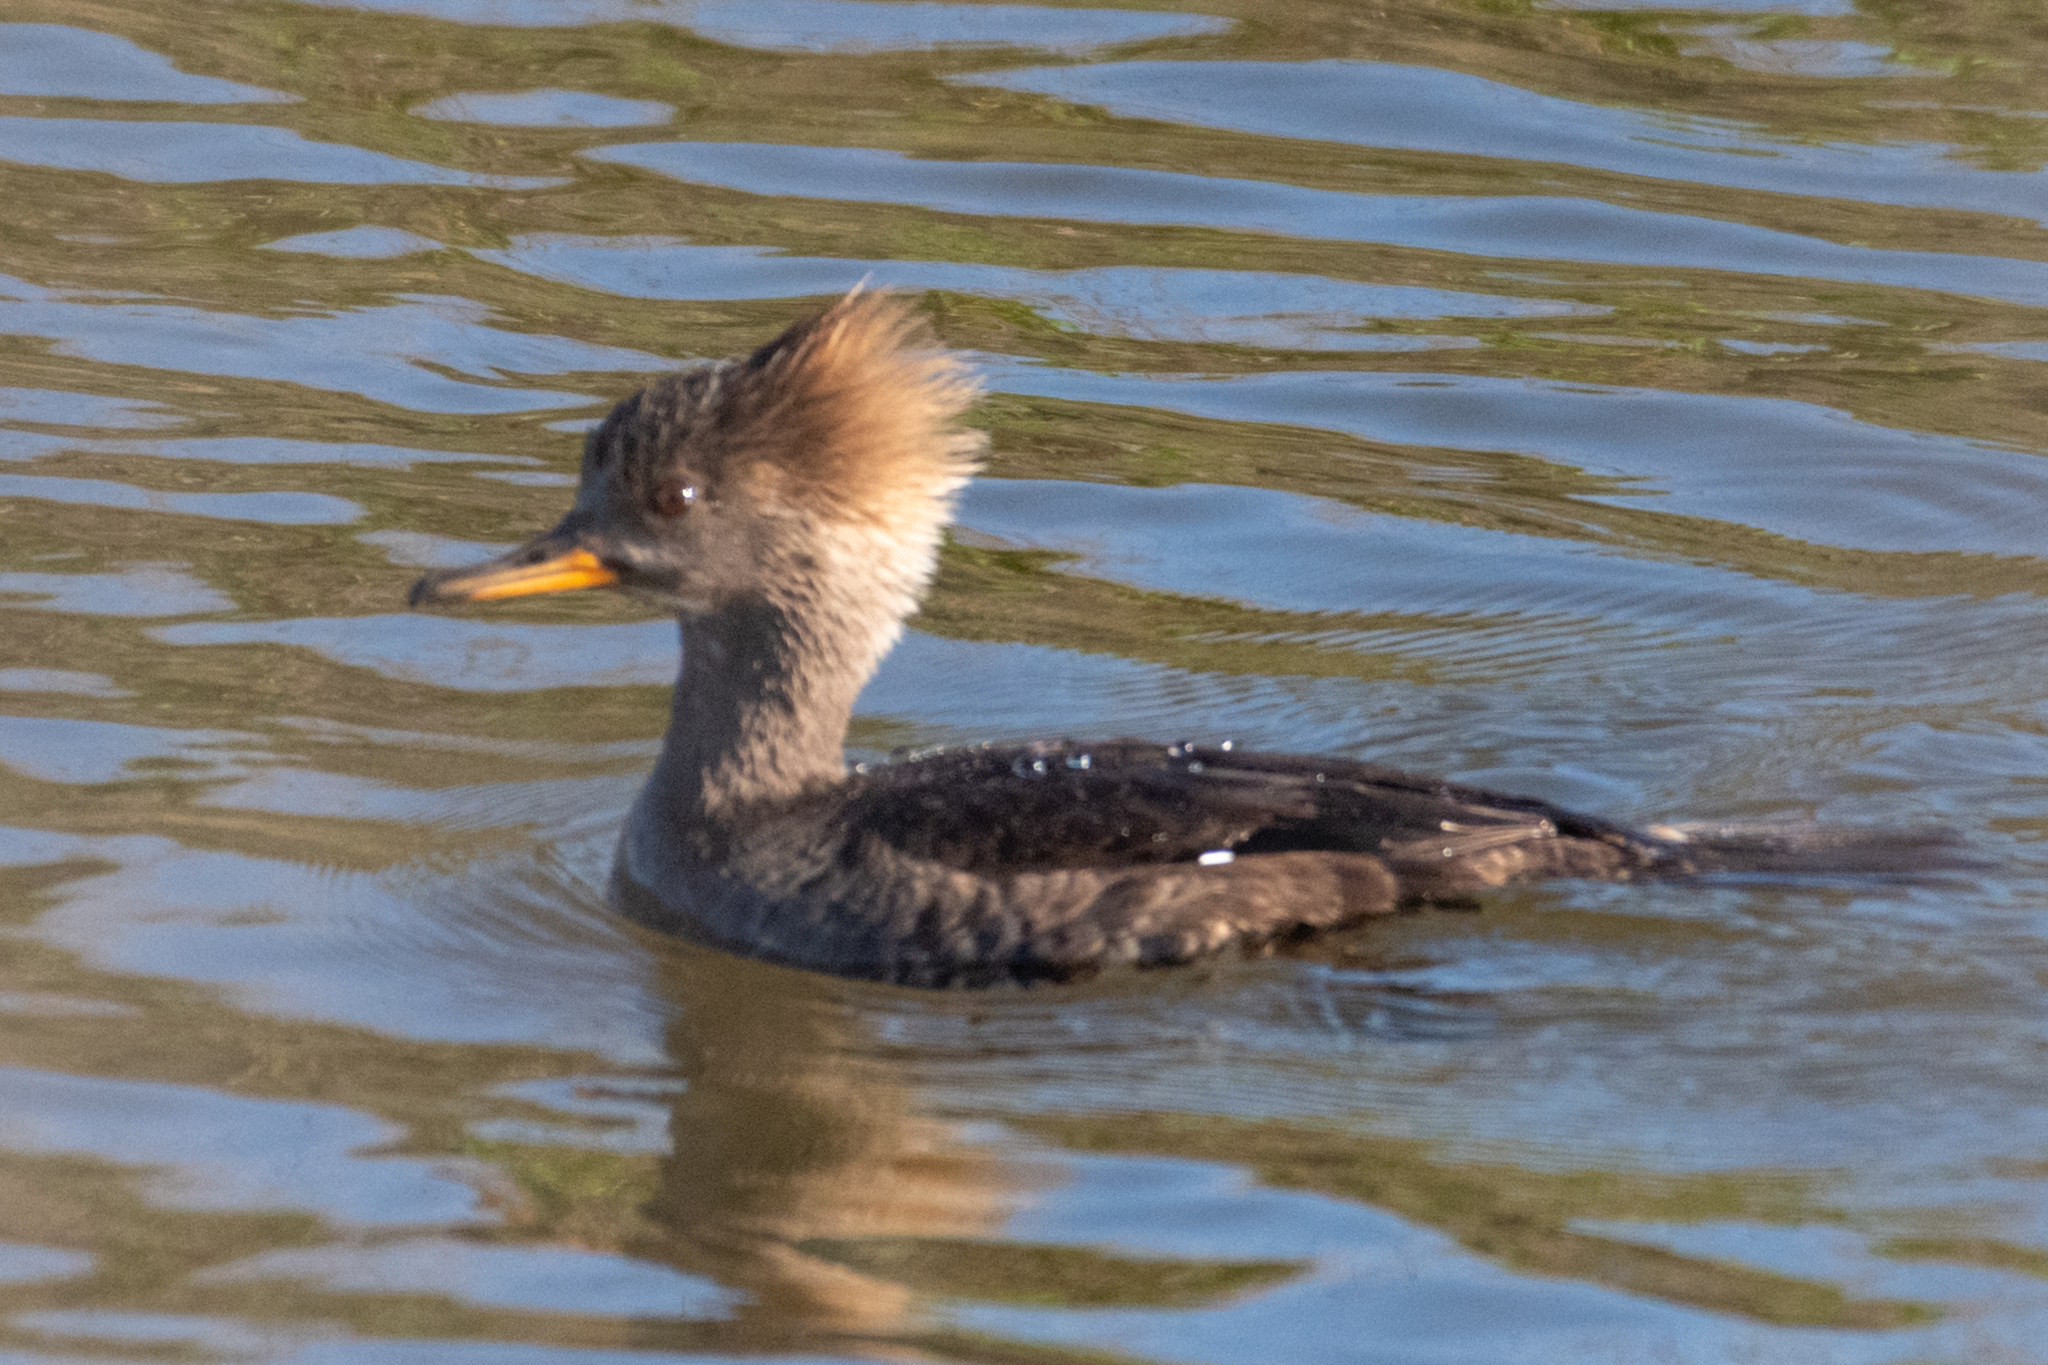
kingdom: Animalia
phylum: Chordata
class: Aves
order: Anseriformes
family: Anatidae
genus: Lophodytes
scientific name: Lophodytes cucullatus
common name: Hooded merganser
